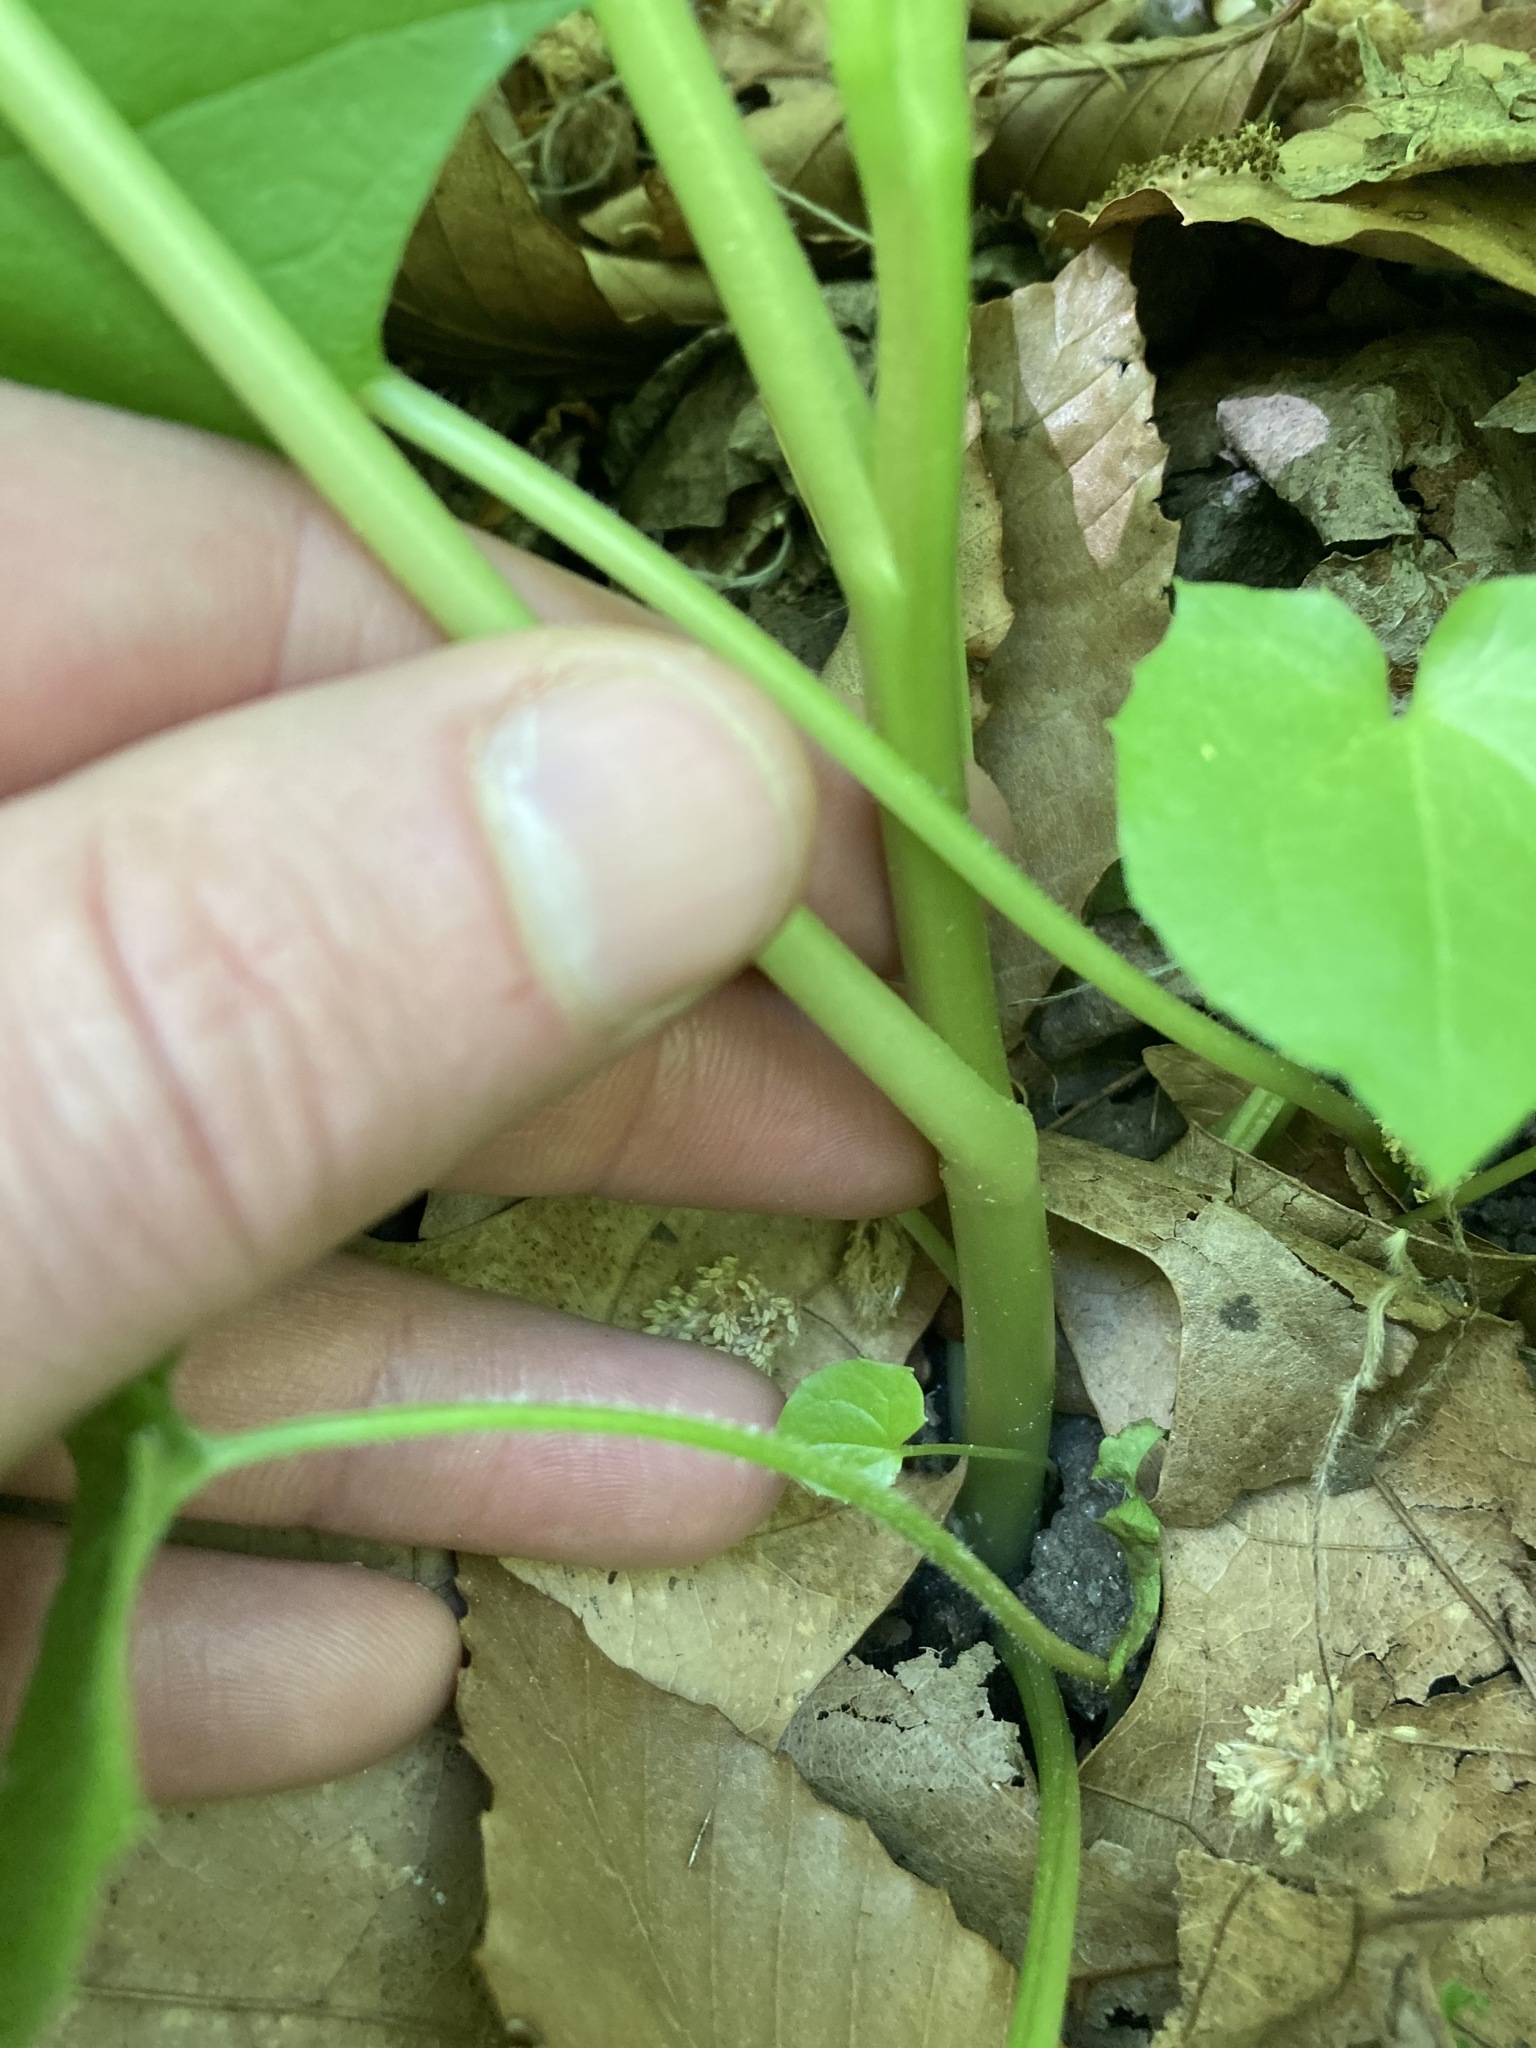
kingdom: Plantae
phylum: Tracheophyta
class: Magnoliopsida
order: Asterales
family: Asteraceae
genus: Nabalus
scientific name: Nabalus albus
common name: White rattlesnakeroot
